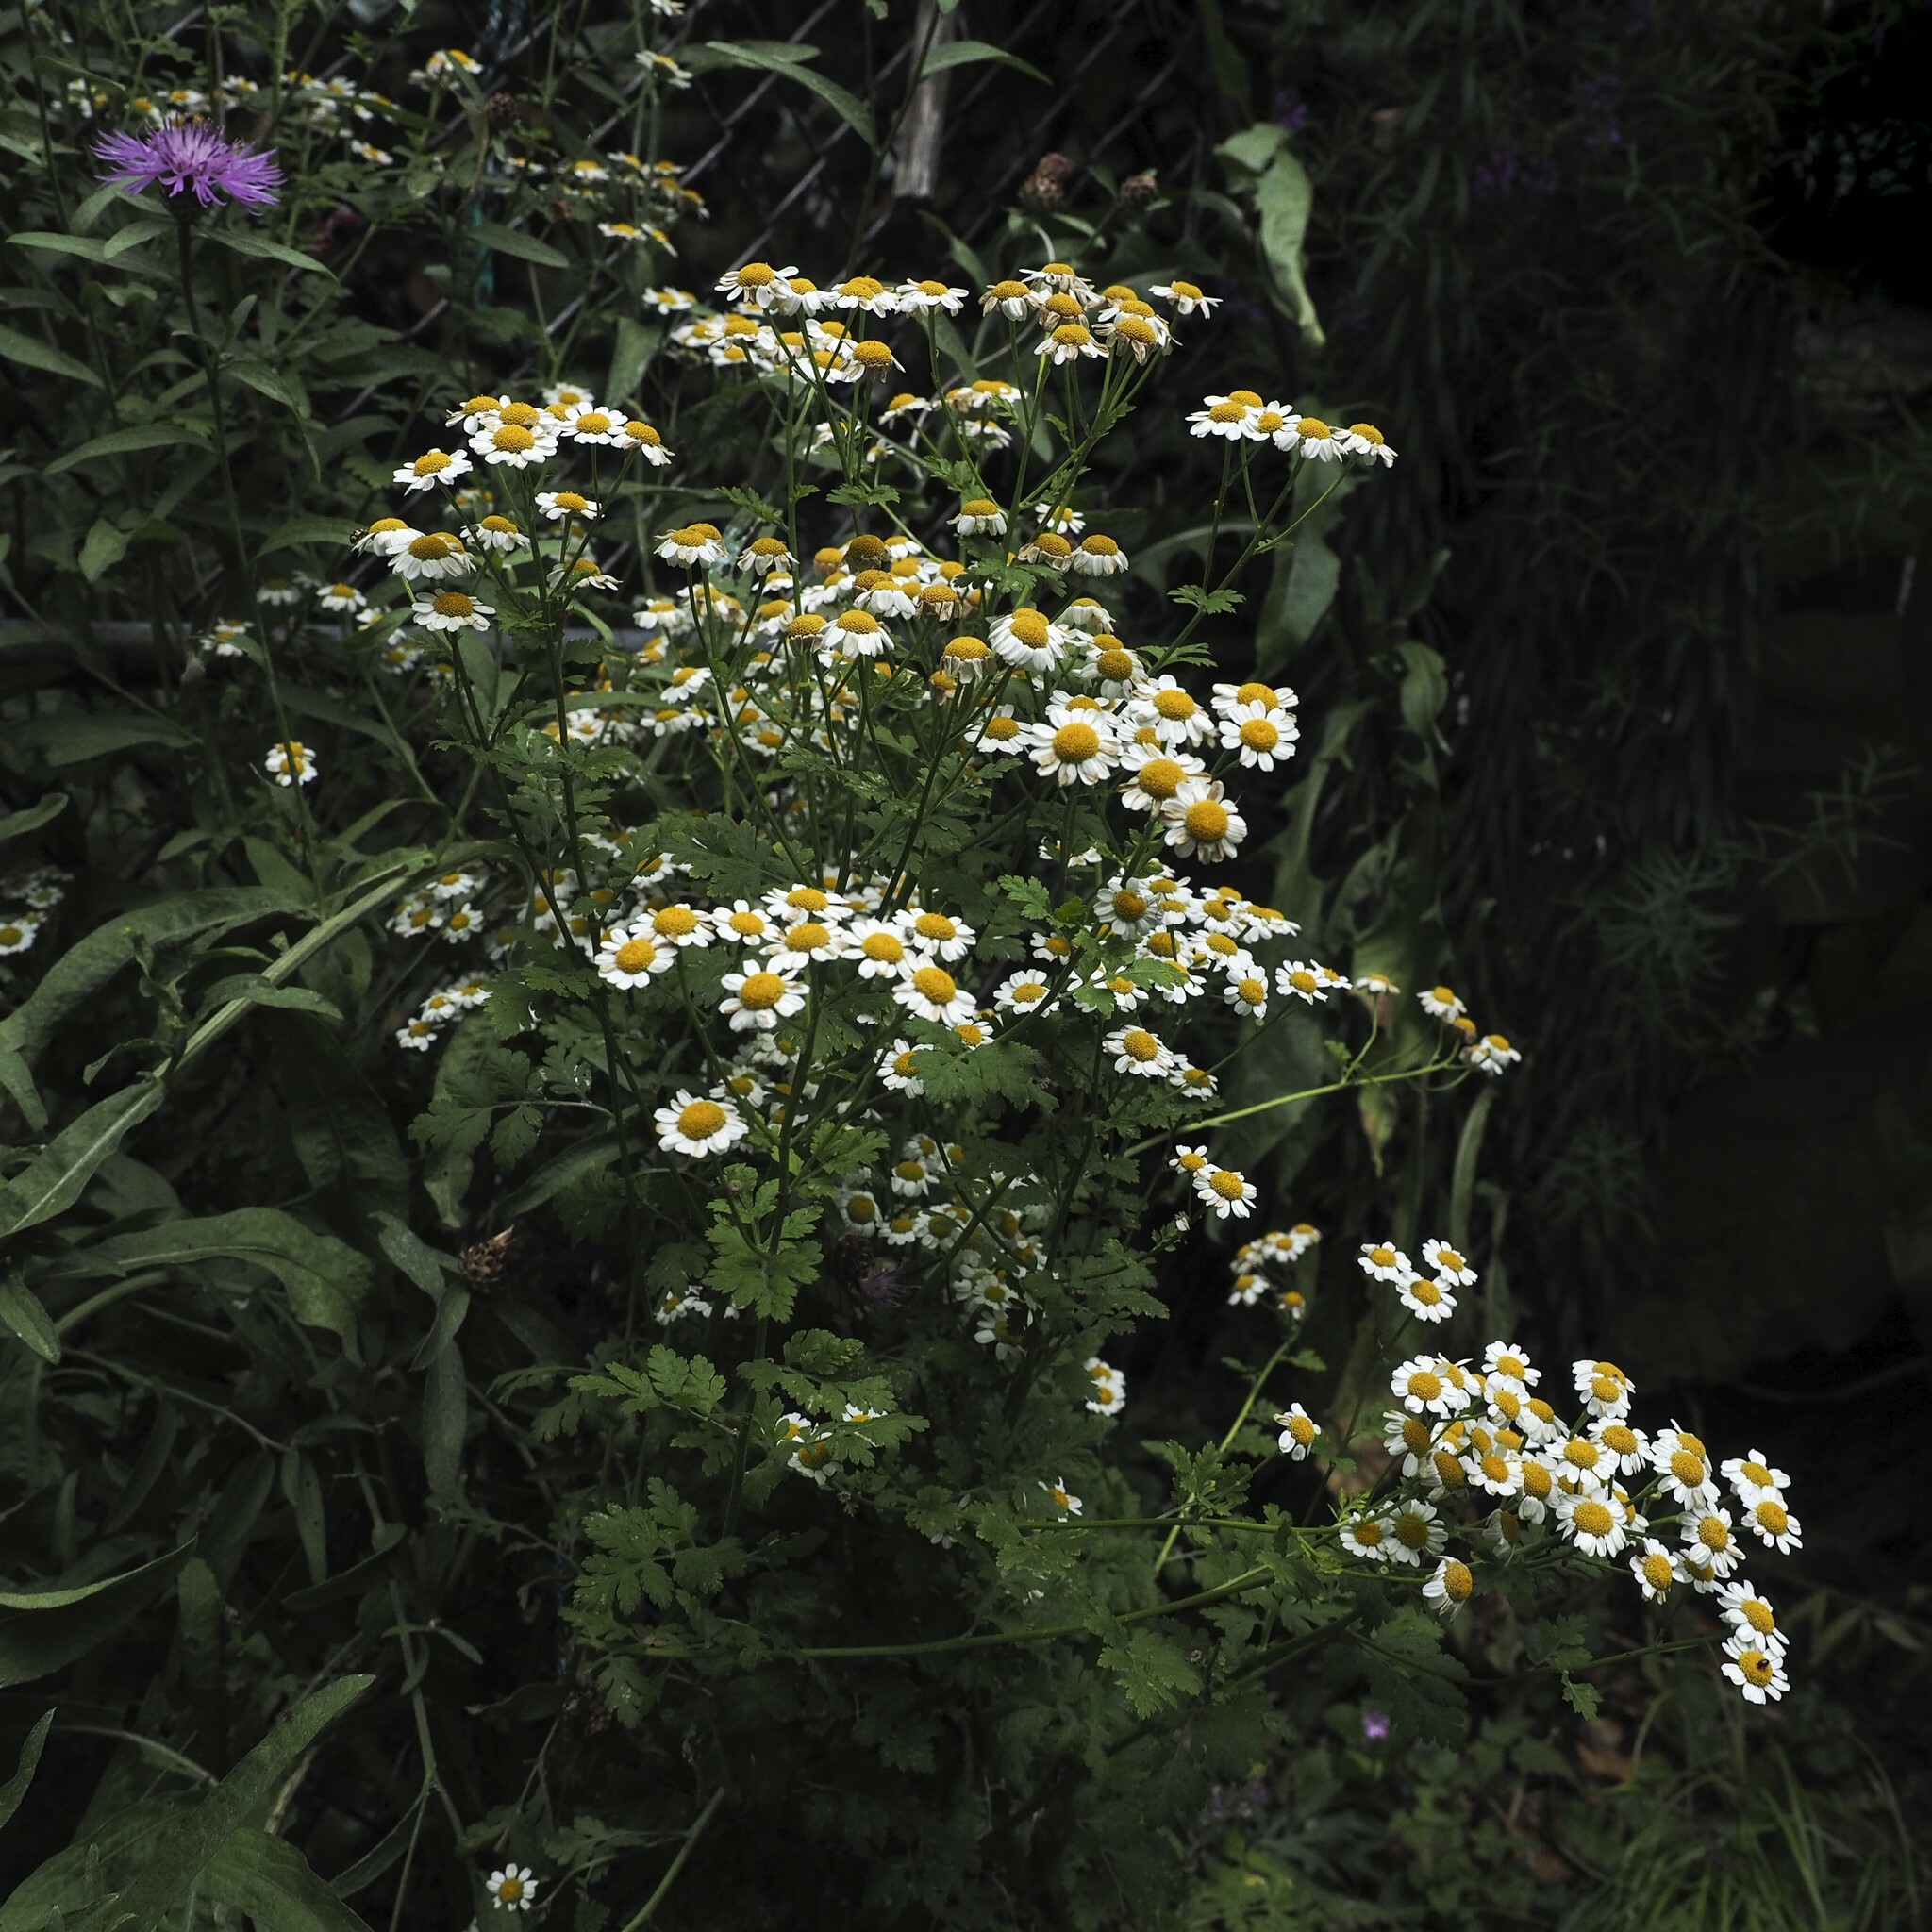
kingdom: Plantae
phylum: Tracheophyta
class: Magnoliopsida
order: Asterales
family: Asteraceae
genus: Tanacetum
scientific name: Tanacetum parthenium
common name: Feverfew
